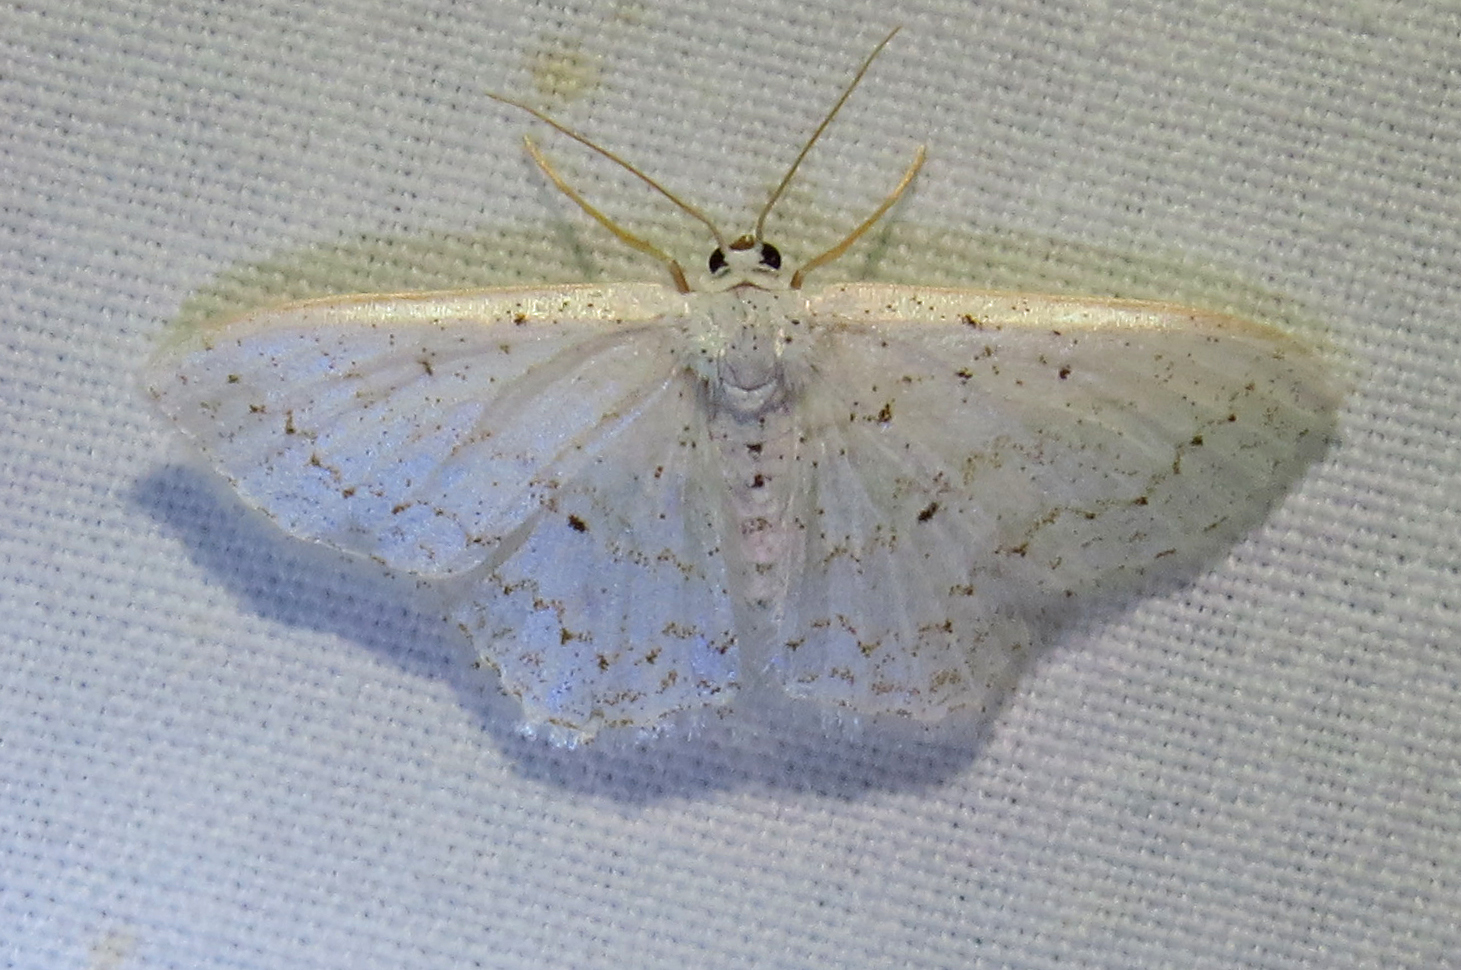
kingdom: Animalia
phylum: Arthropoda
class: Insecta
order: Lepidoptera
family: Geometridae
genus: Idaea
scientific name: Idaea tacturata
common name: Dot-lined wave
